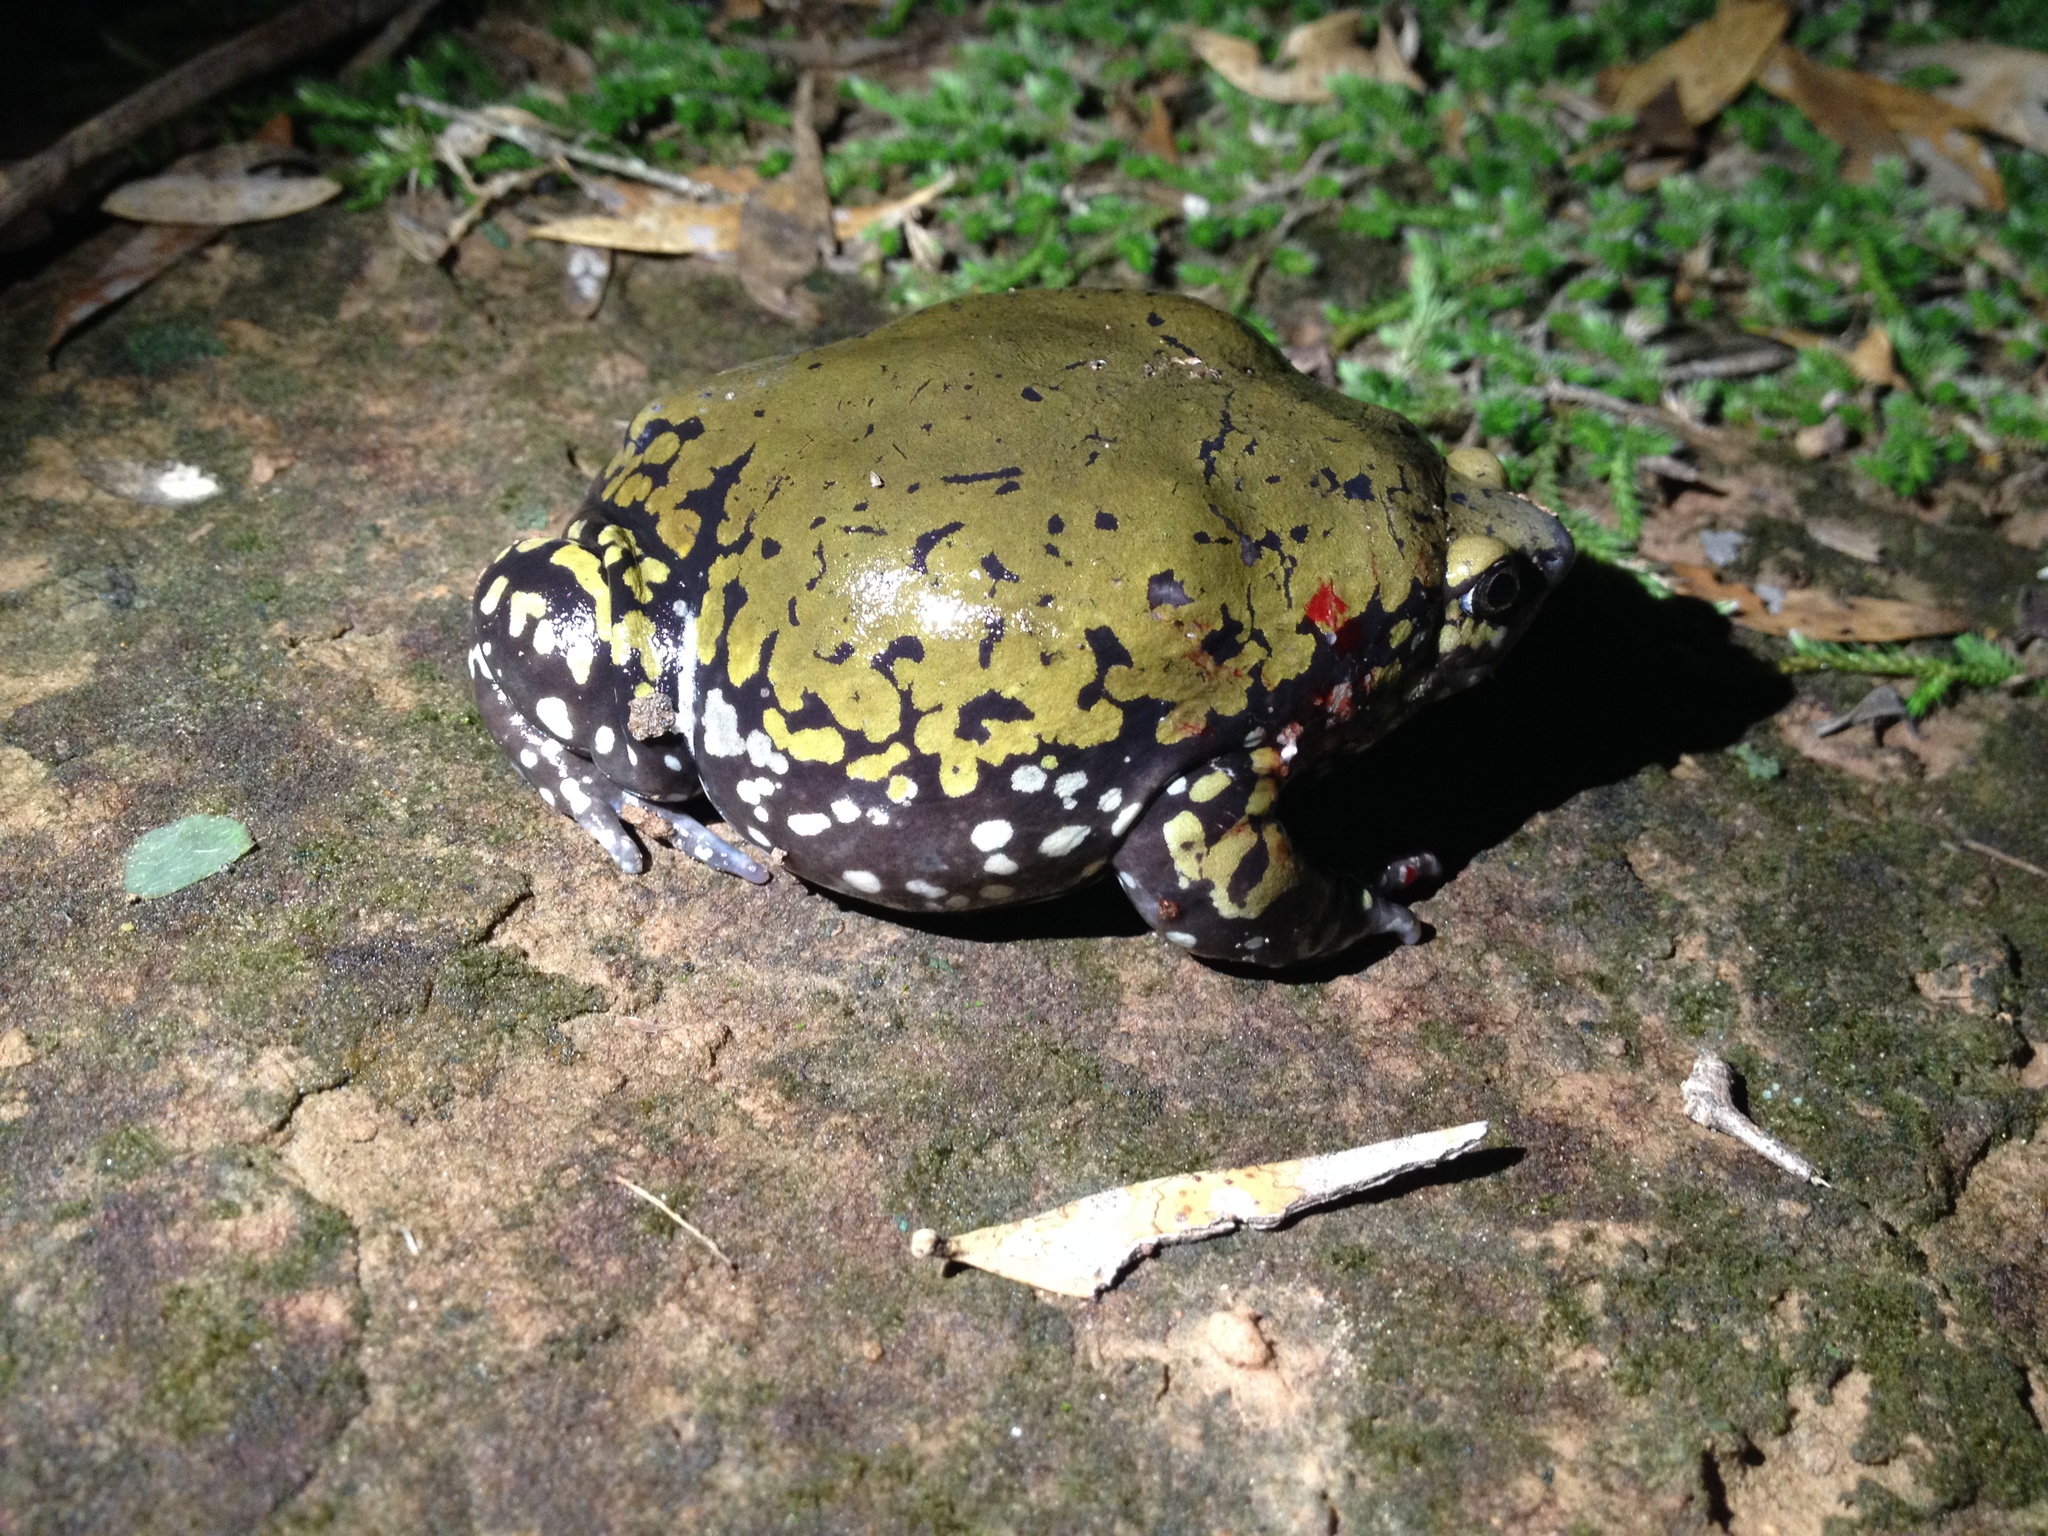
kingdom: Animalia
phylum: Chordata
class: Amphibia
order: Anura
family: Microhylidae
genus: Dermatonotus
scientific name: Dermatonotus muelleri
